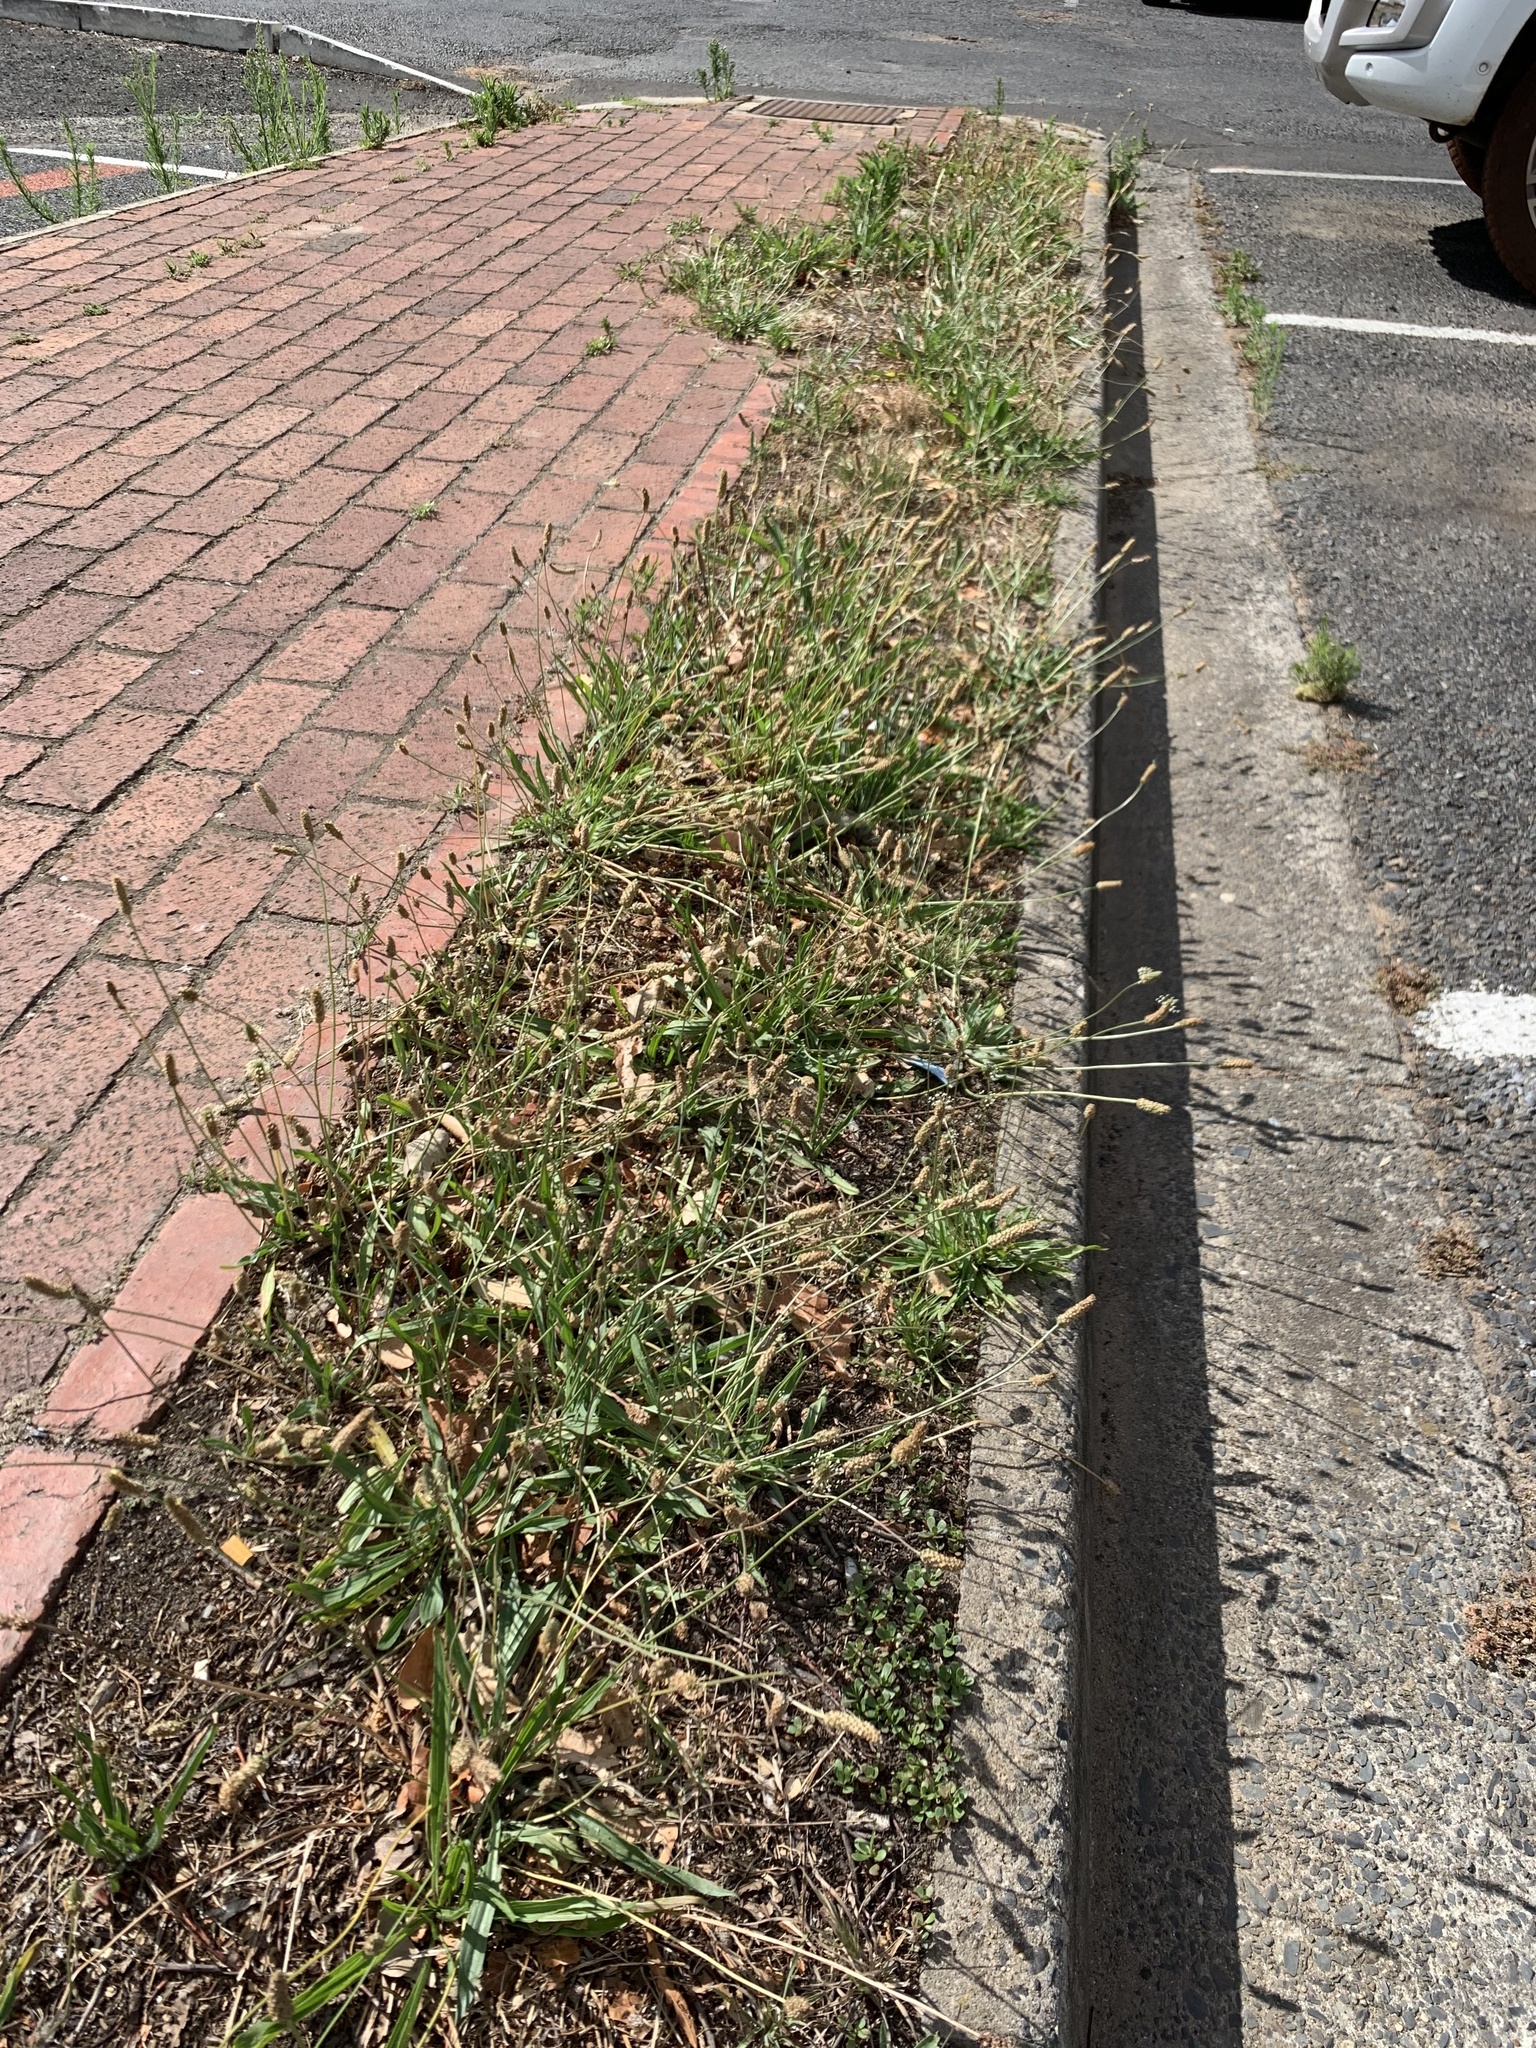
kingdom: Plantae
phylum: Tracheophyta
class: Magnoliopsida
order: Lamiales
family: Plantaginaceae
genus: Plantago
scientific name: Plantago lanceolata
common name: Ribwort plantain
